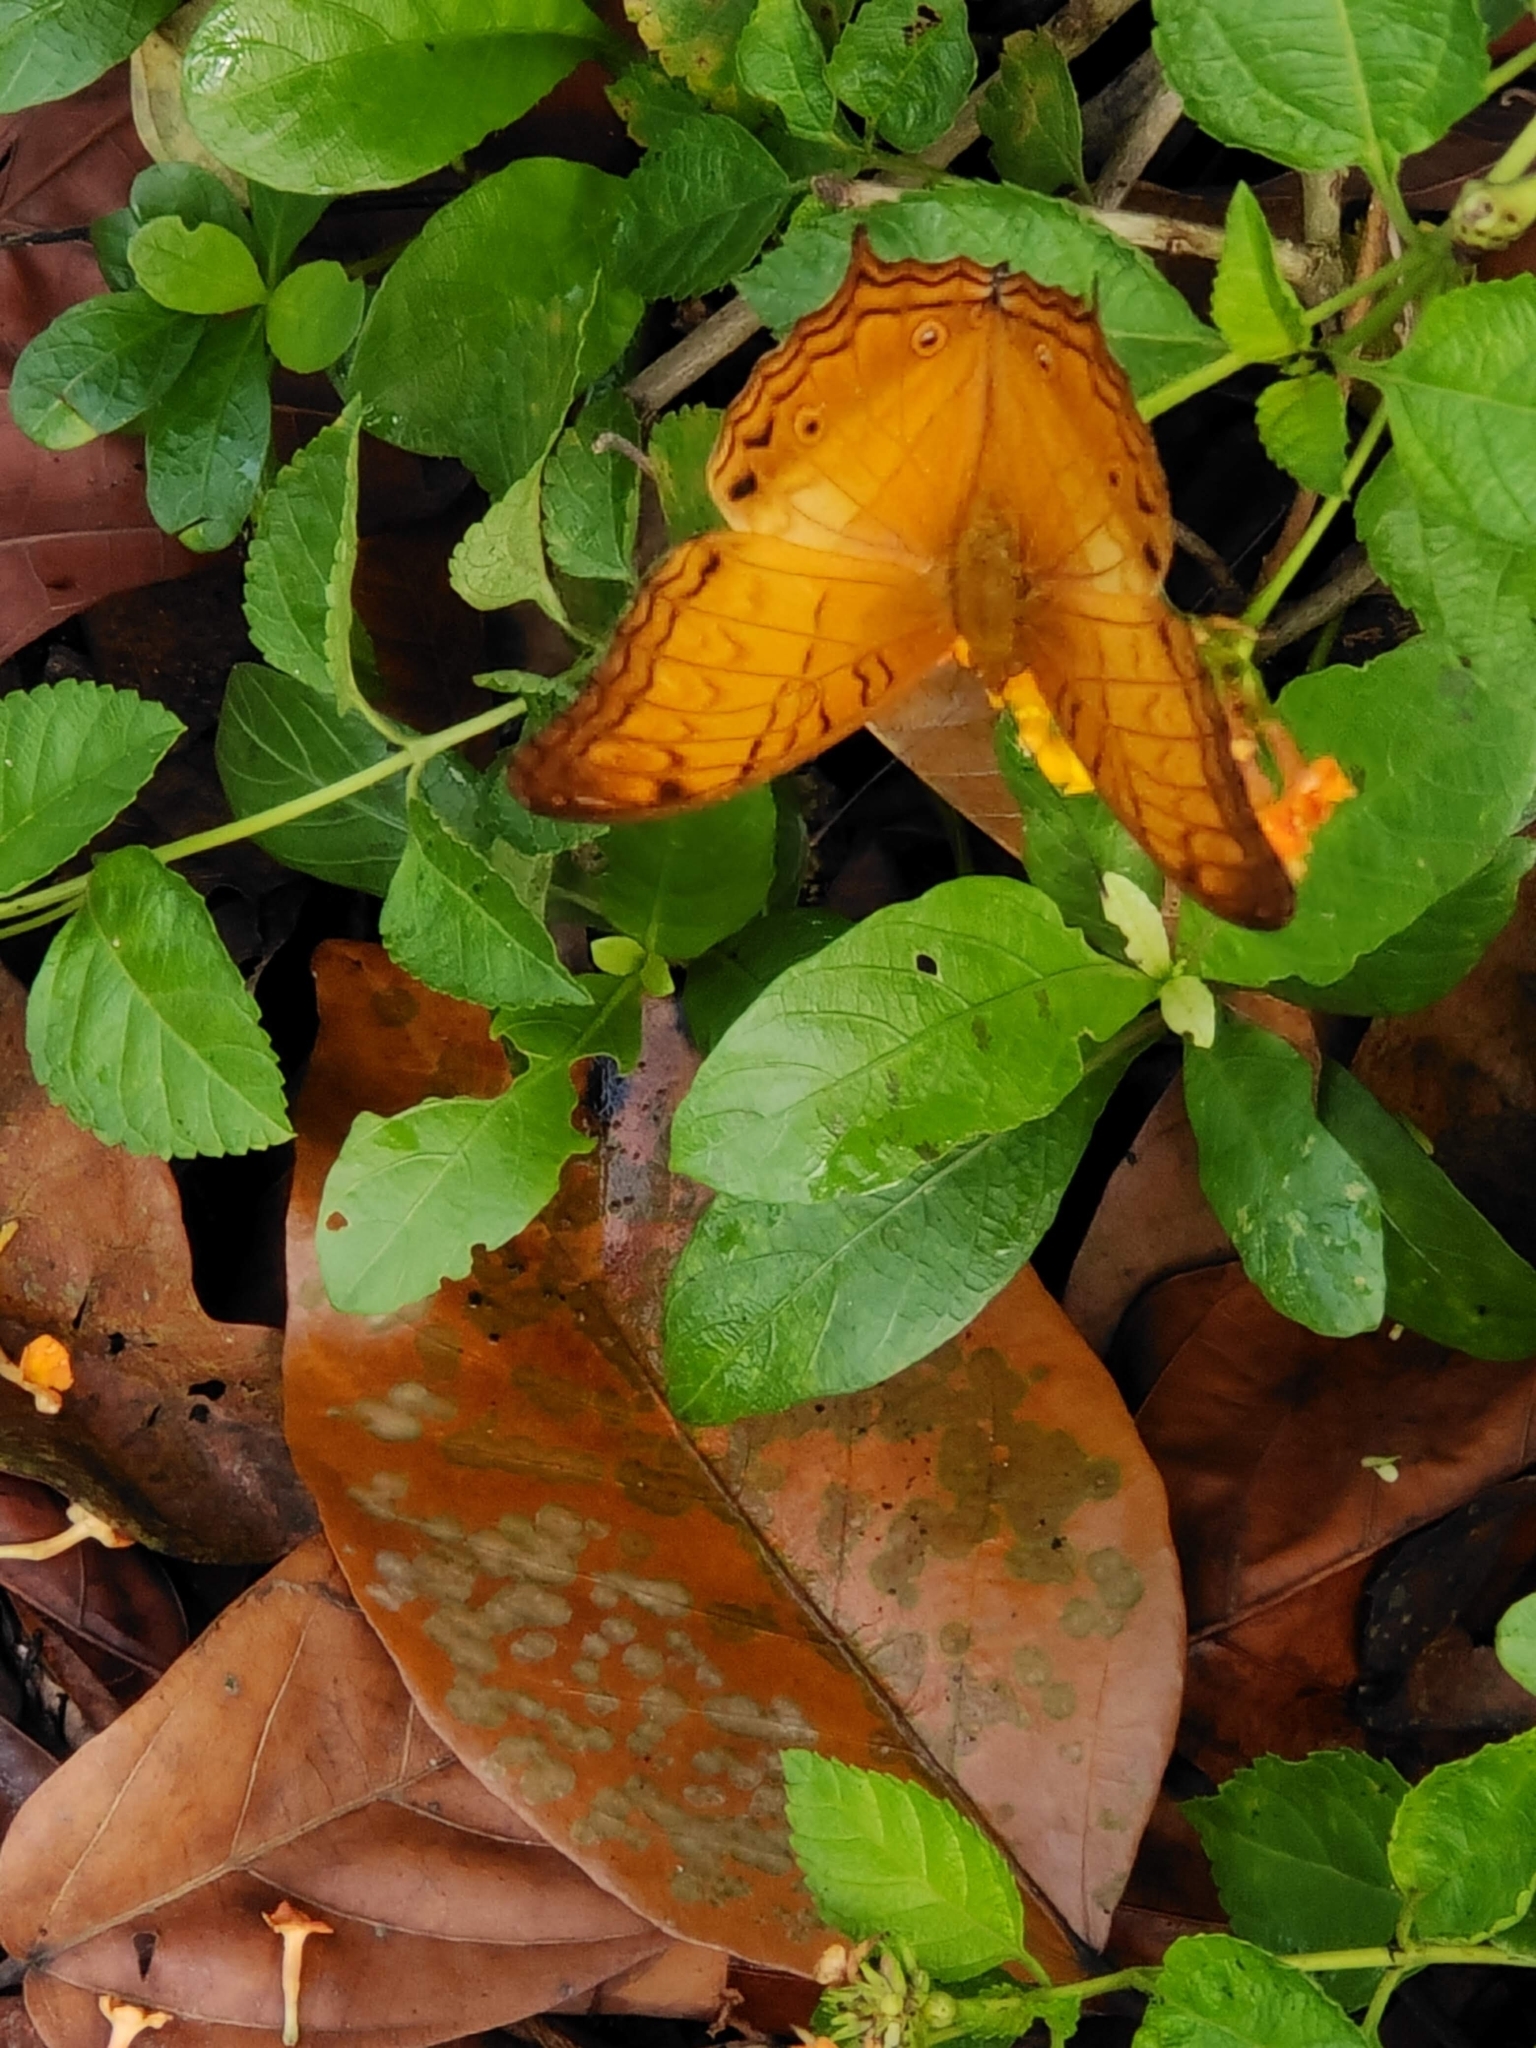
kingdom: Animalia
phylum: Arthropoda
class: Insecta
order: Lepidoptera
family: Nymphalidae
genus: Vindula
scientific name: Vindula deione
